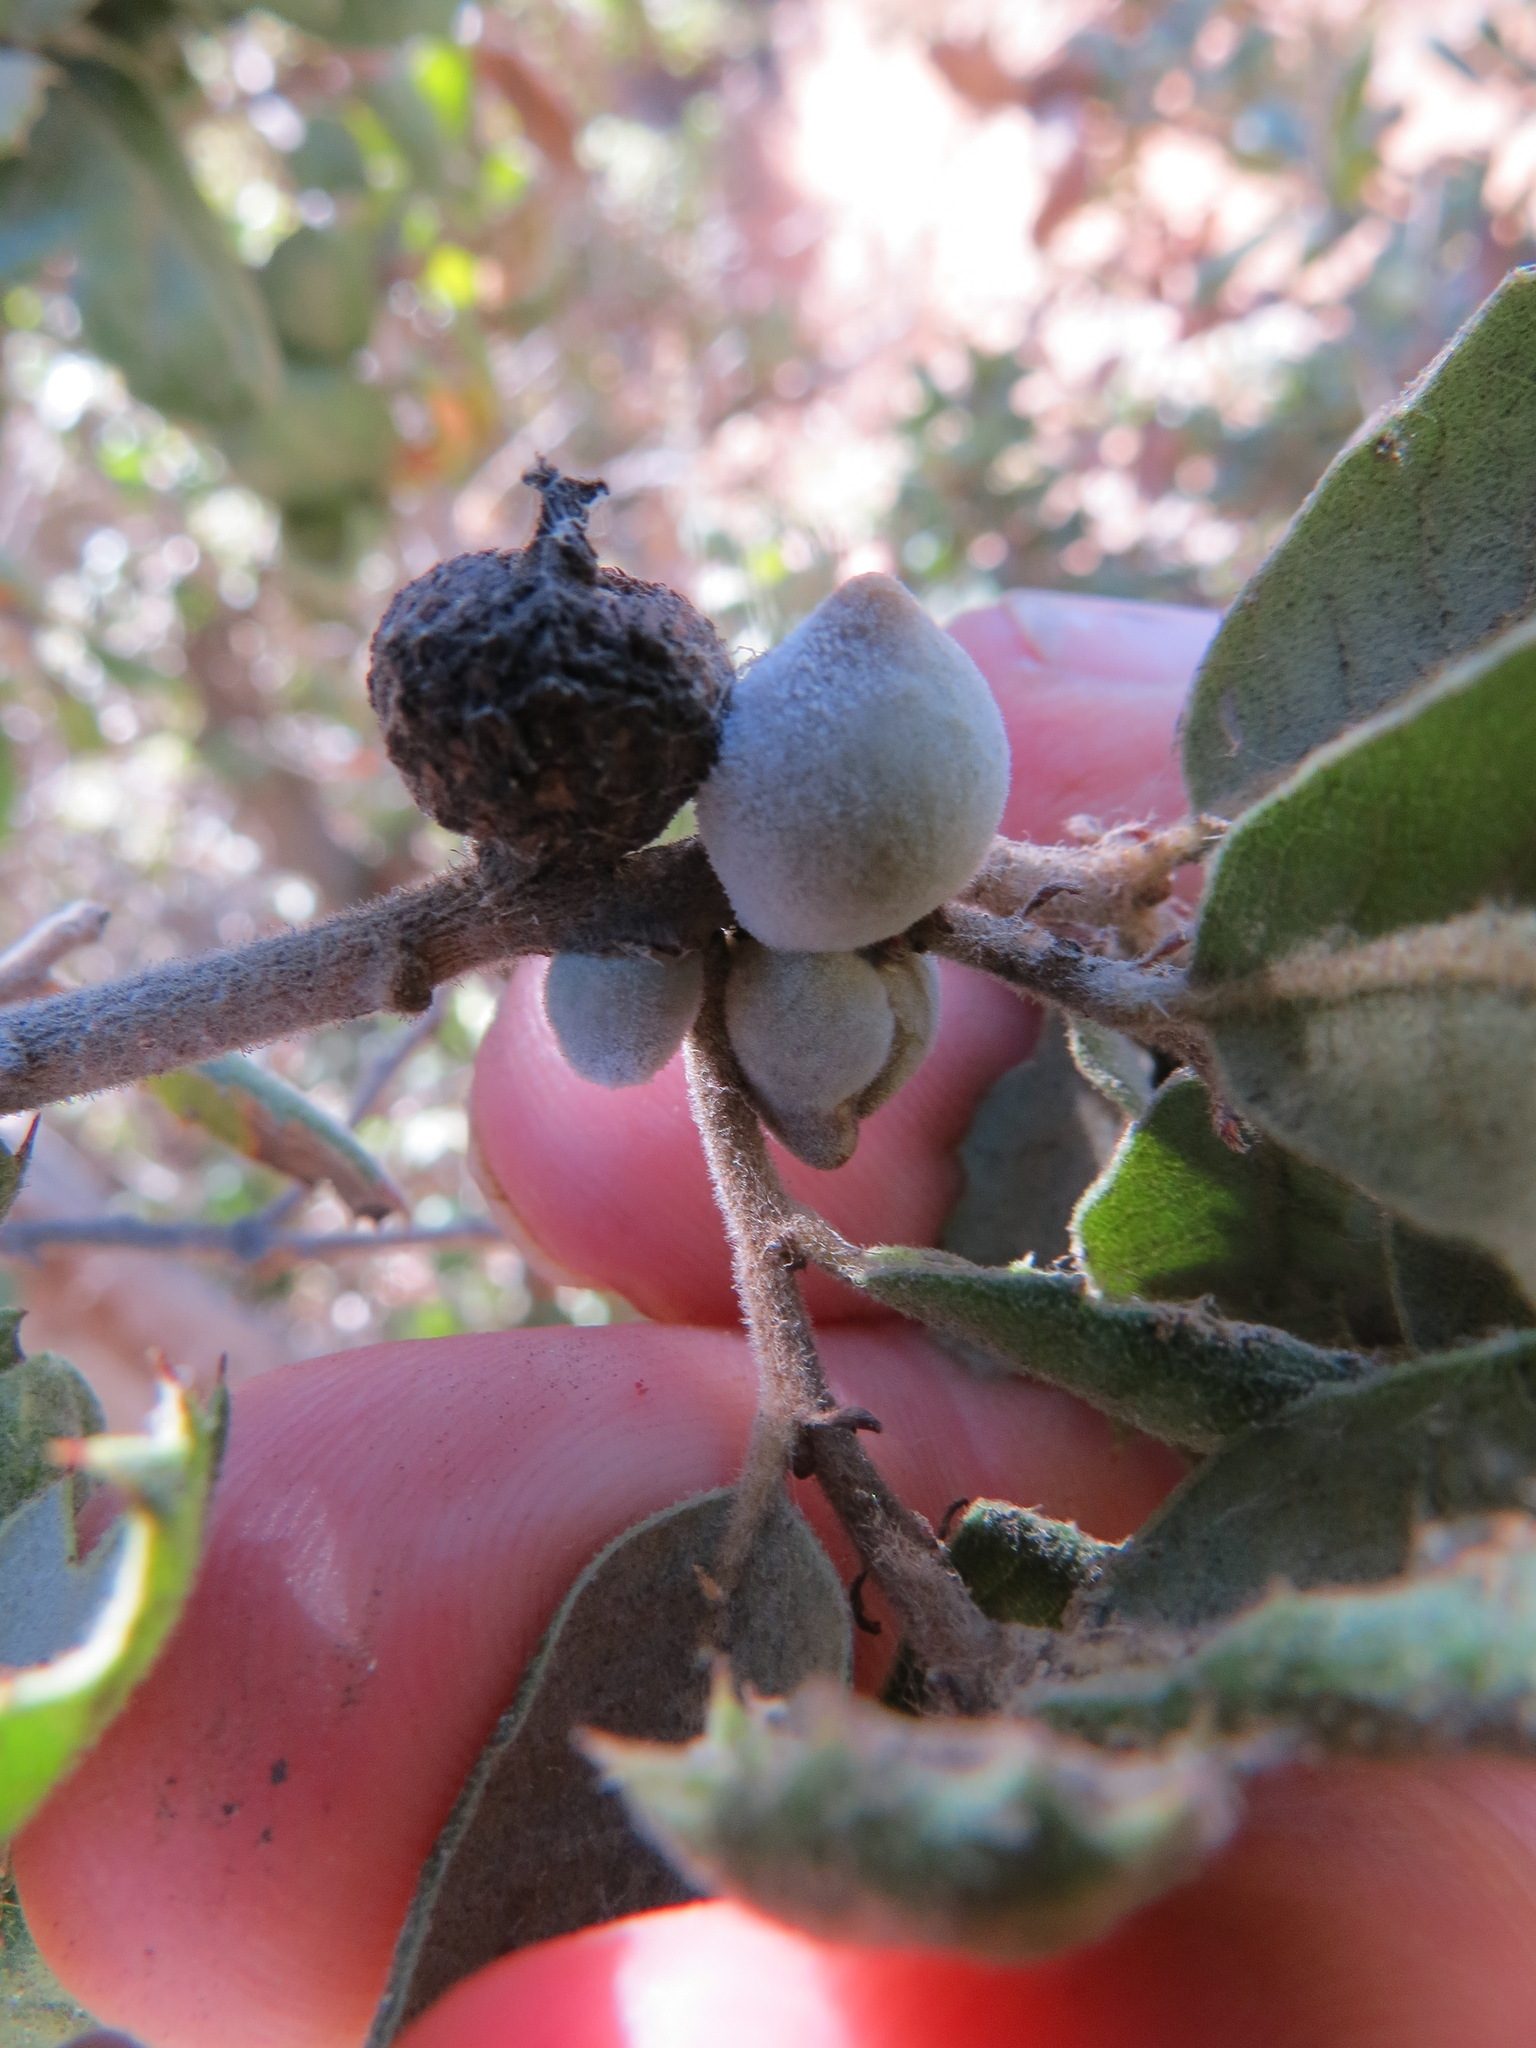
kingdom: Animalia
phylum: Arthropoda
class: Insecta
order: Hymenoptera
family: Cynipidae
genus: Disholcaspis
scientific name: Disholcaspis
